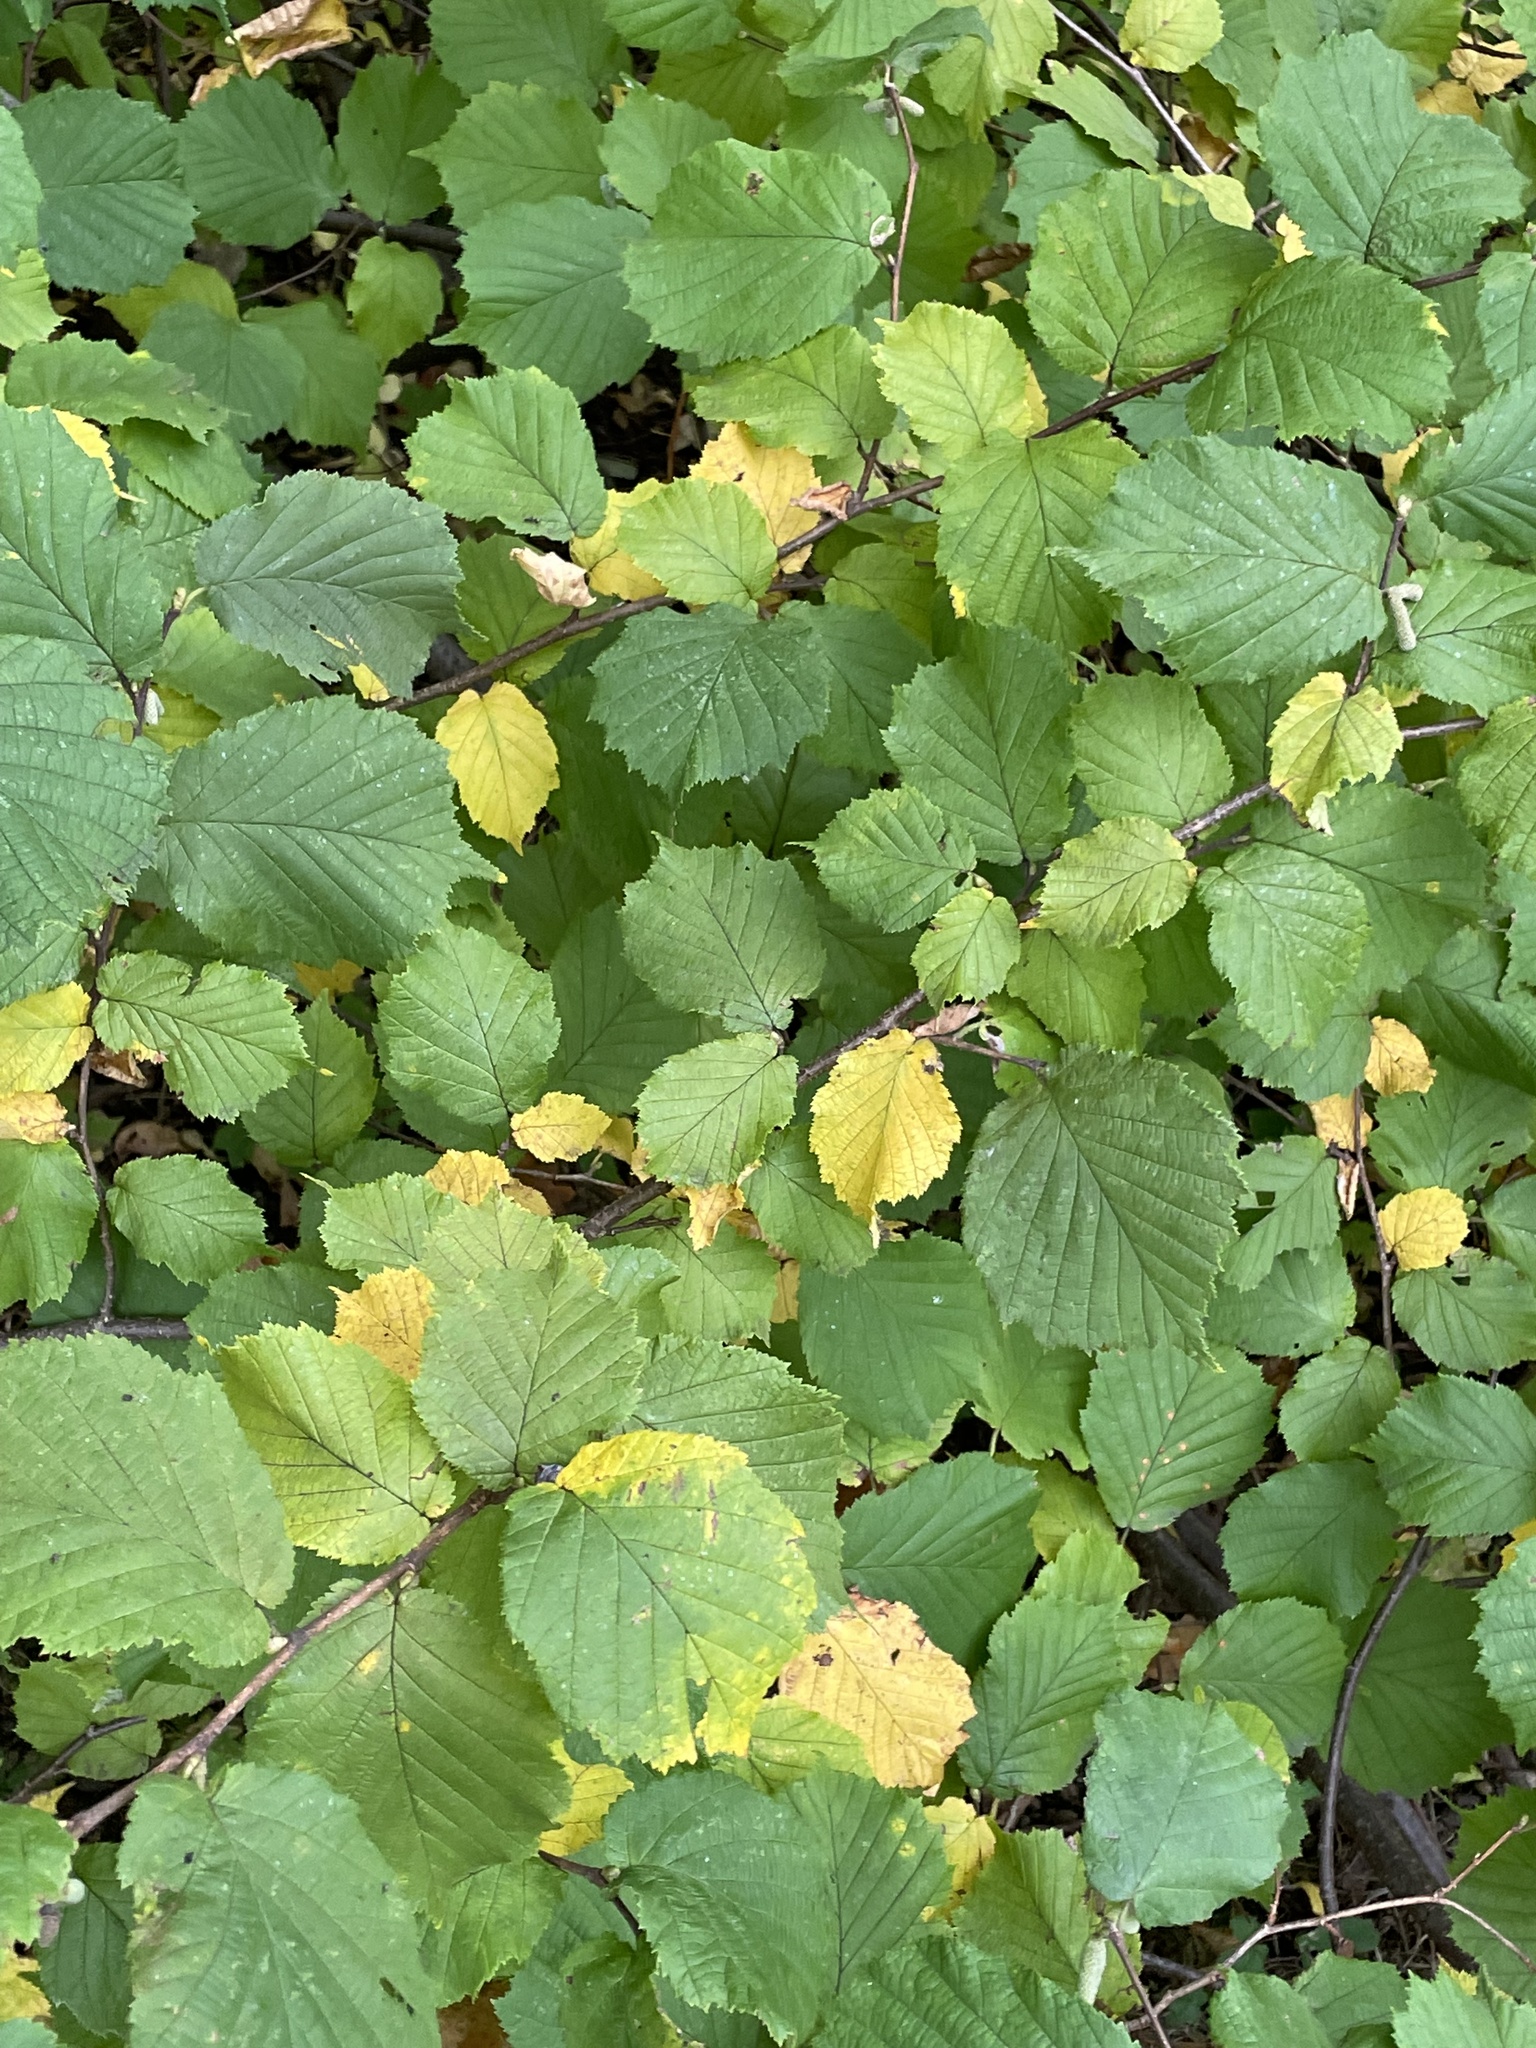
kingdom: Plantae
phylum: Tracheophyta
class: Magnoliopsida
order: Fagales
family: Betulaceae
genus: Corylus
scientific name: Corylus avellana
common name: European hazel
